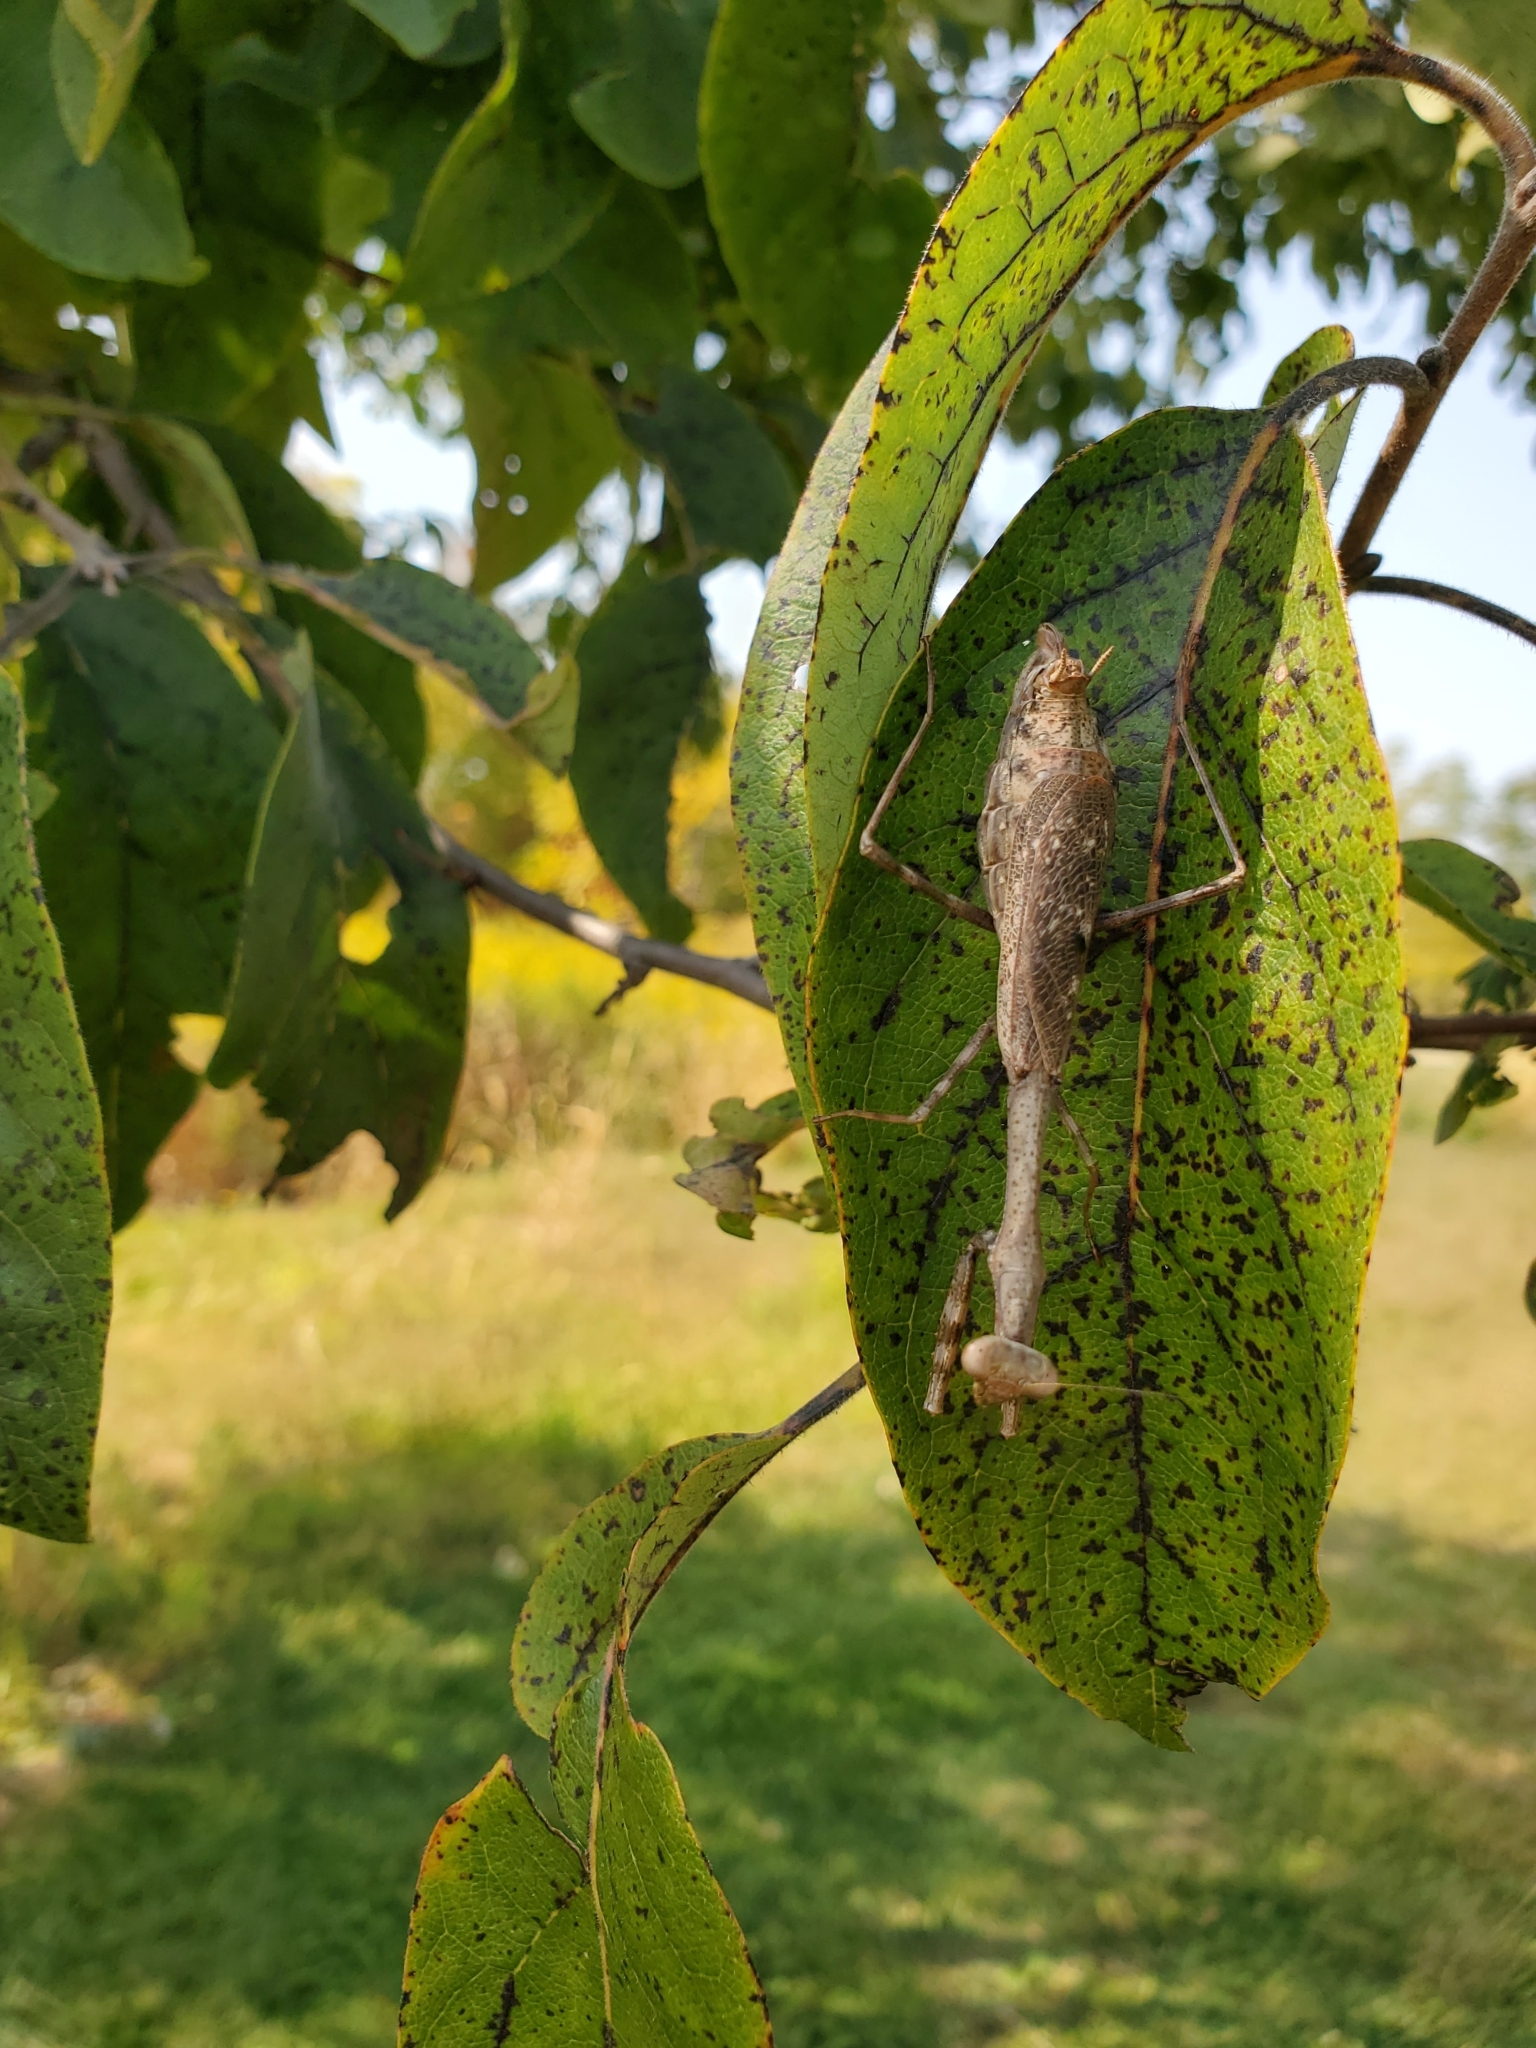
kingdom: Animalia
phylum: Arthropoda
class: Insecta
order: Mantodea
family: Mantidae
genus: Stagmomantis
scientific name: Stagmomantis carolina
